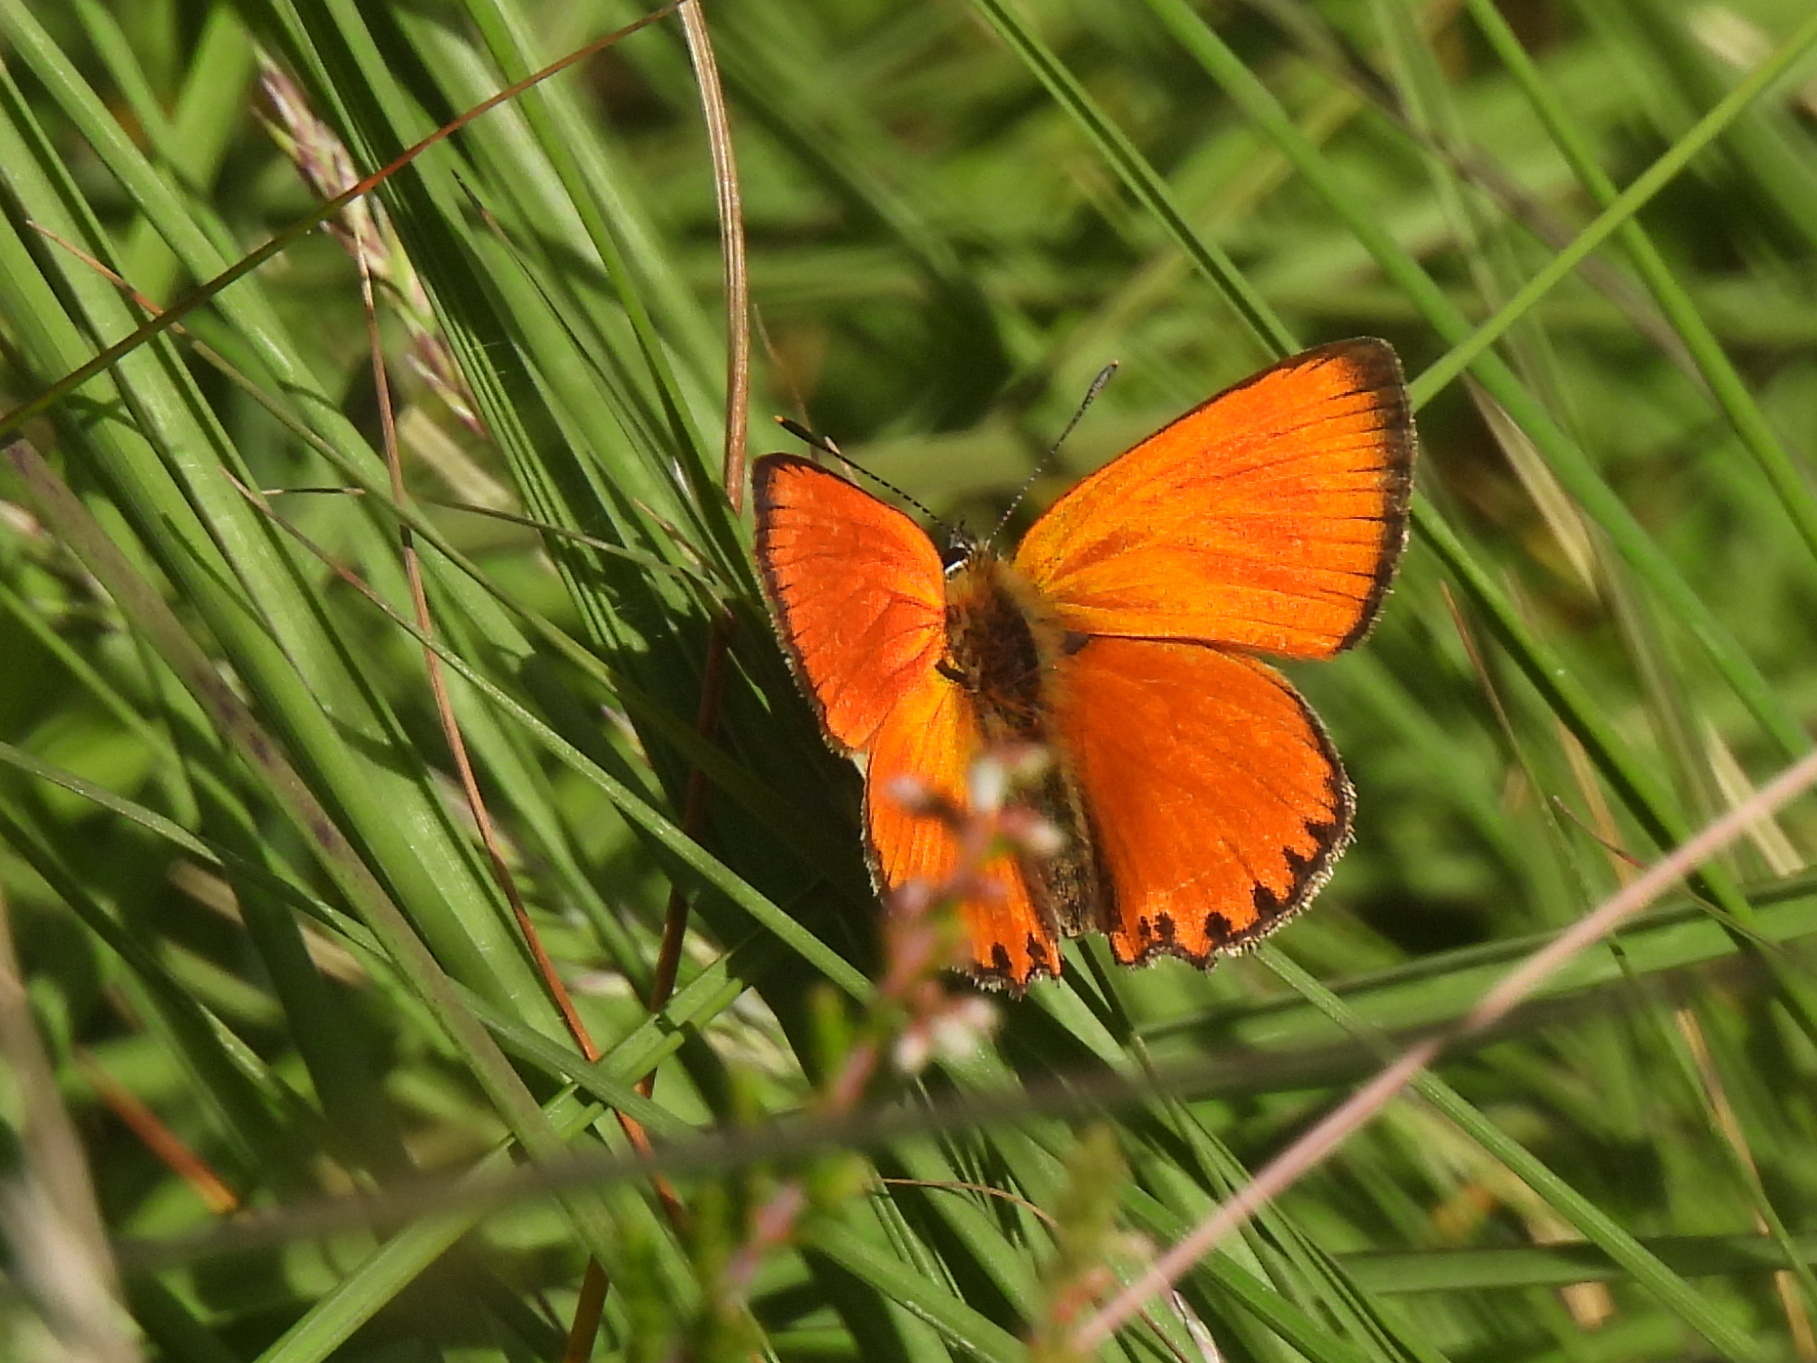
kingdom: Animalia
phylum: Arthropoda
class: Insecta
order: Lepidoptera
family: Lycaenidae
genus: Lycaena
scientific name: Lycaena virgaureae
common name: Scarce copper
